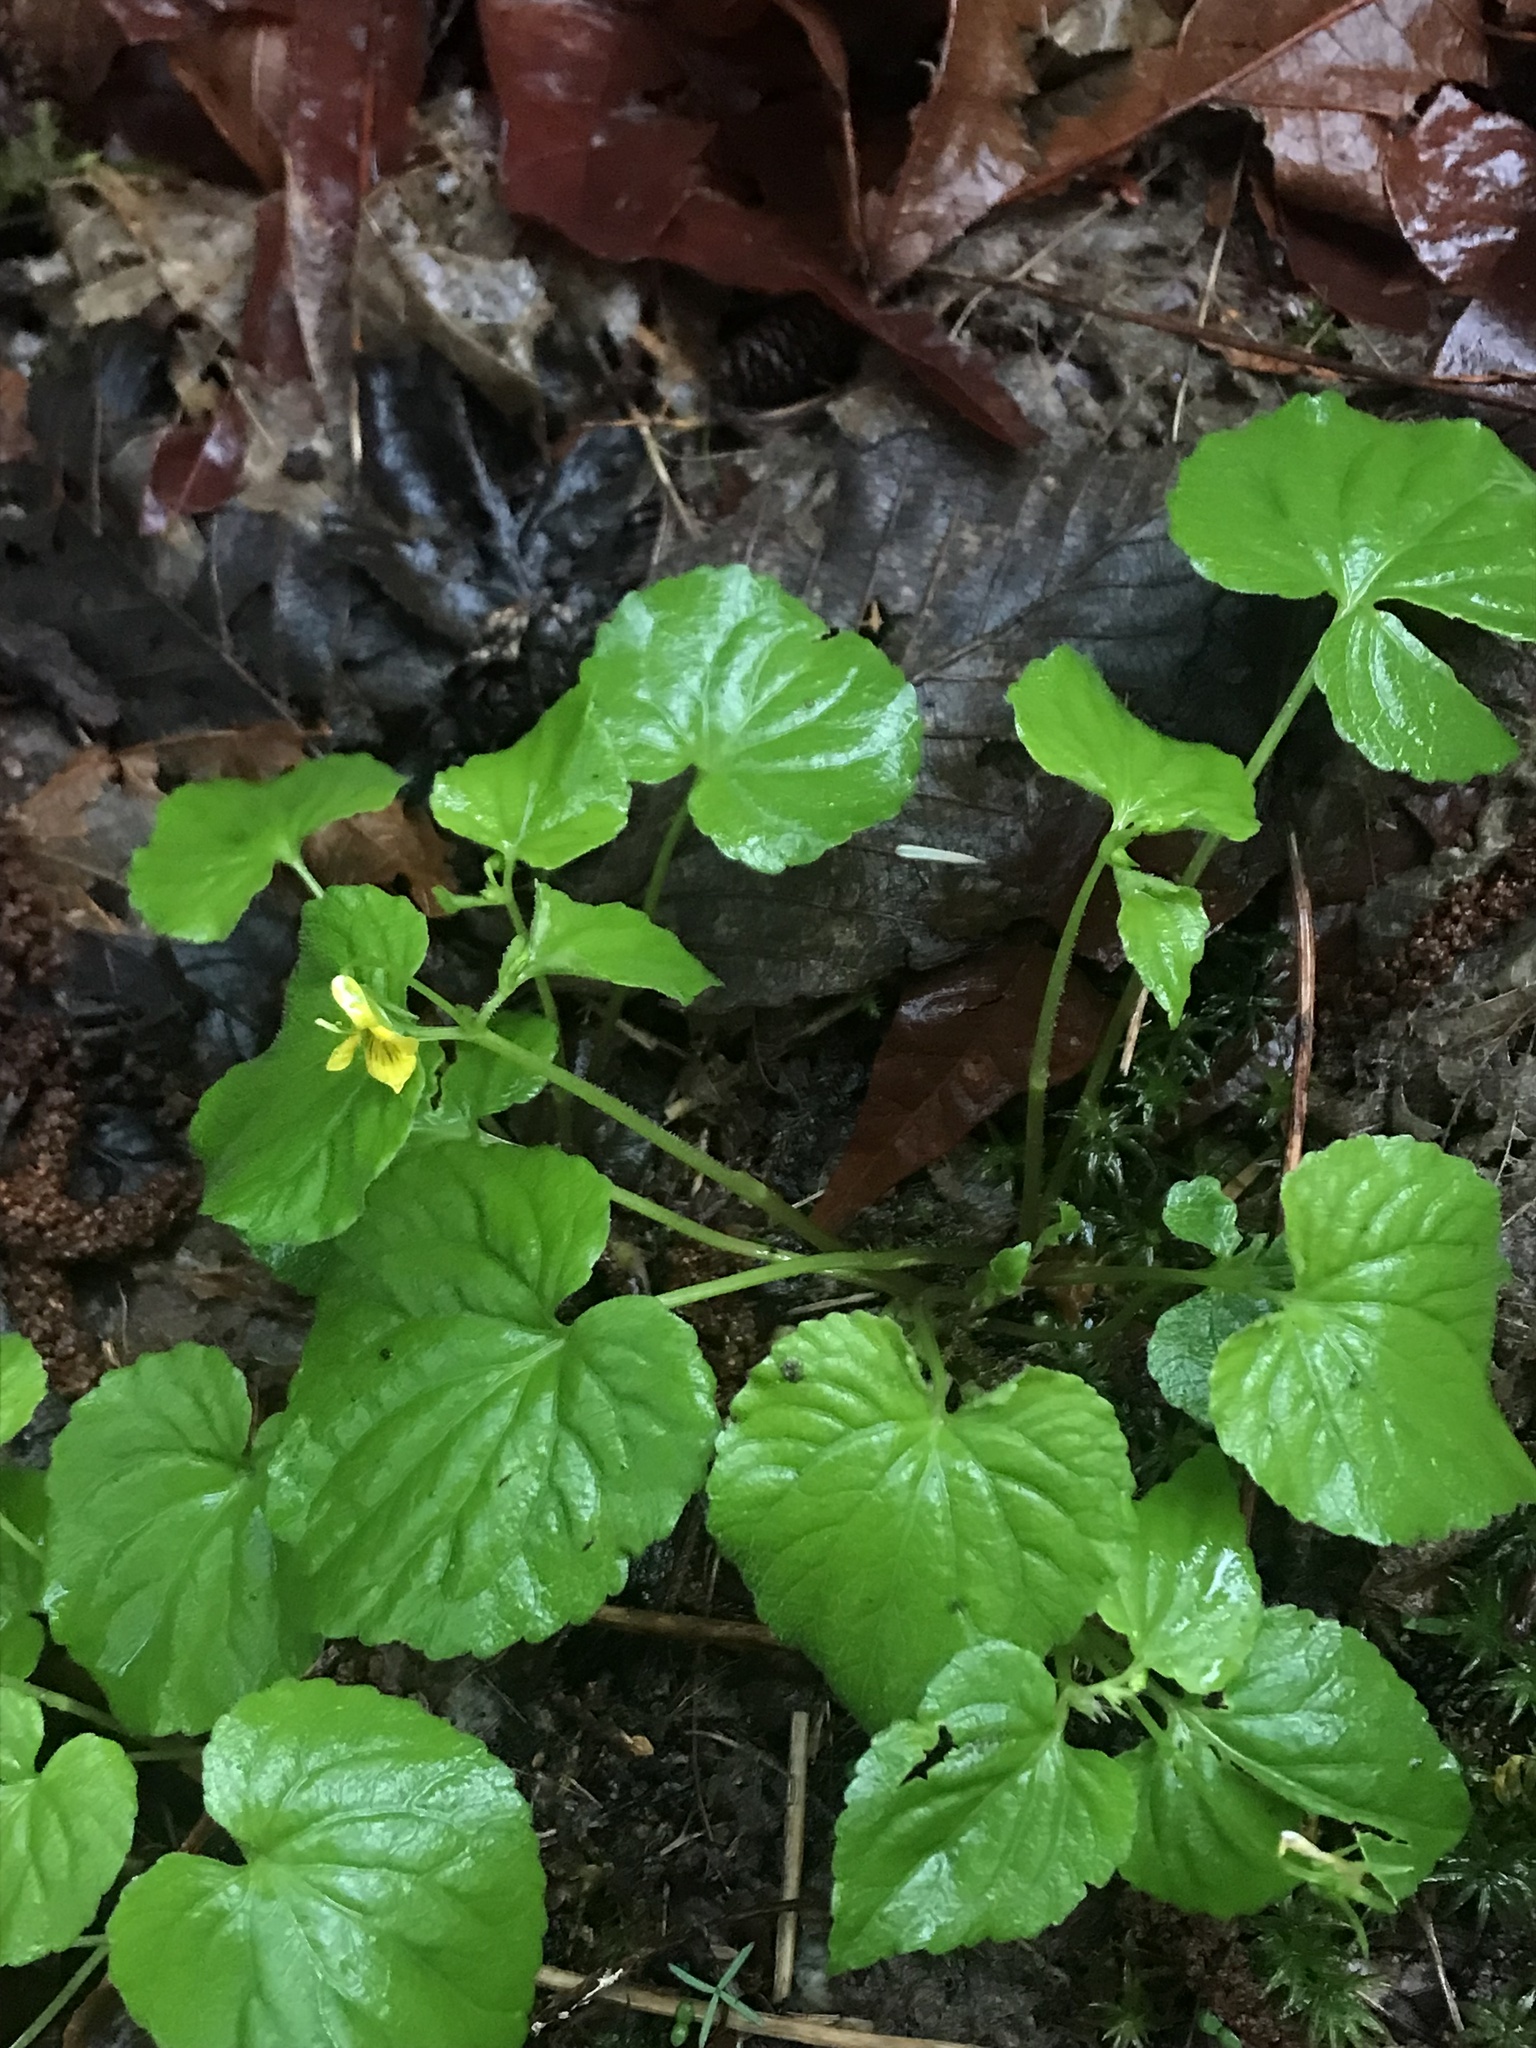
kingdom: Plantae
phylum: Tracheophyta
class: Magnoliopsida
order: Malpighiales
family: Violaceae
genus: Viola
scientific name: Viola glabella
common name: Stream violet
